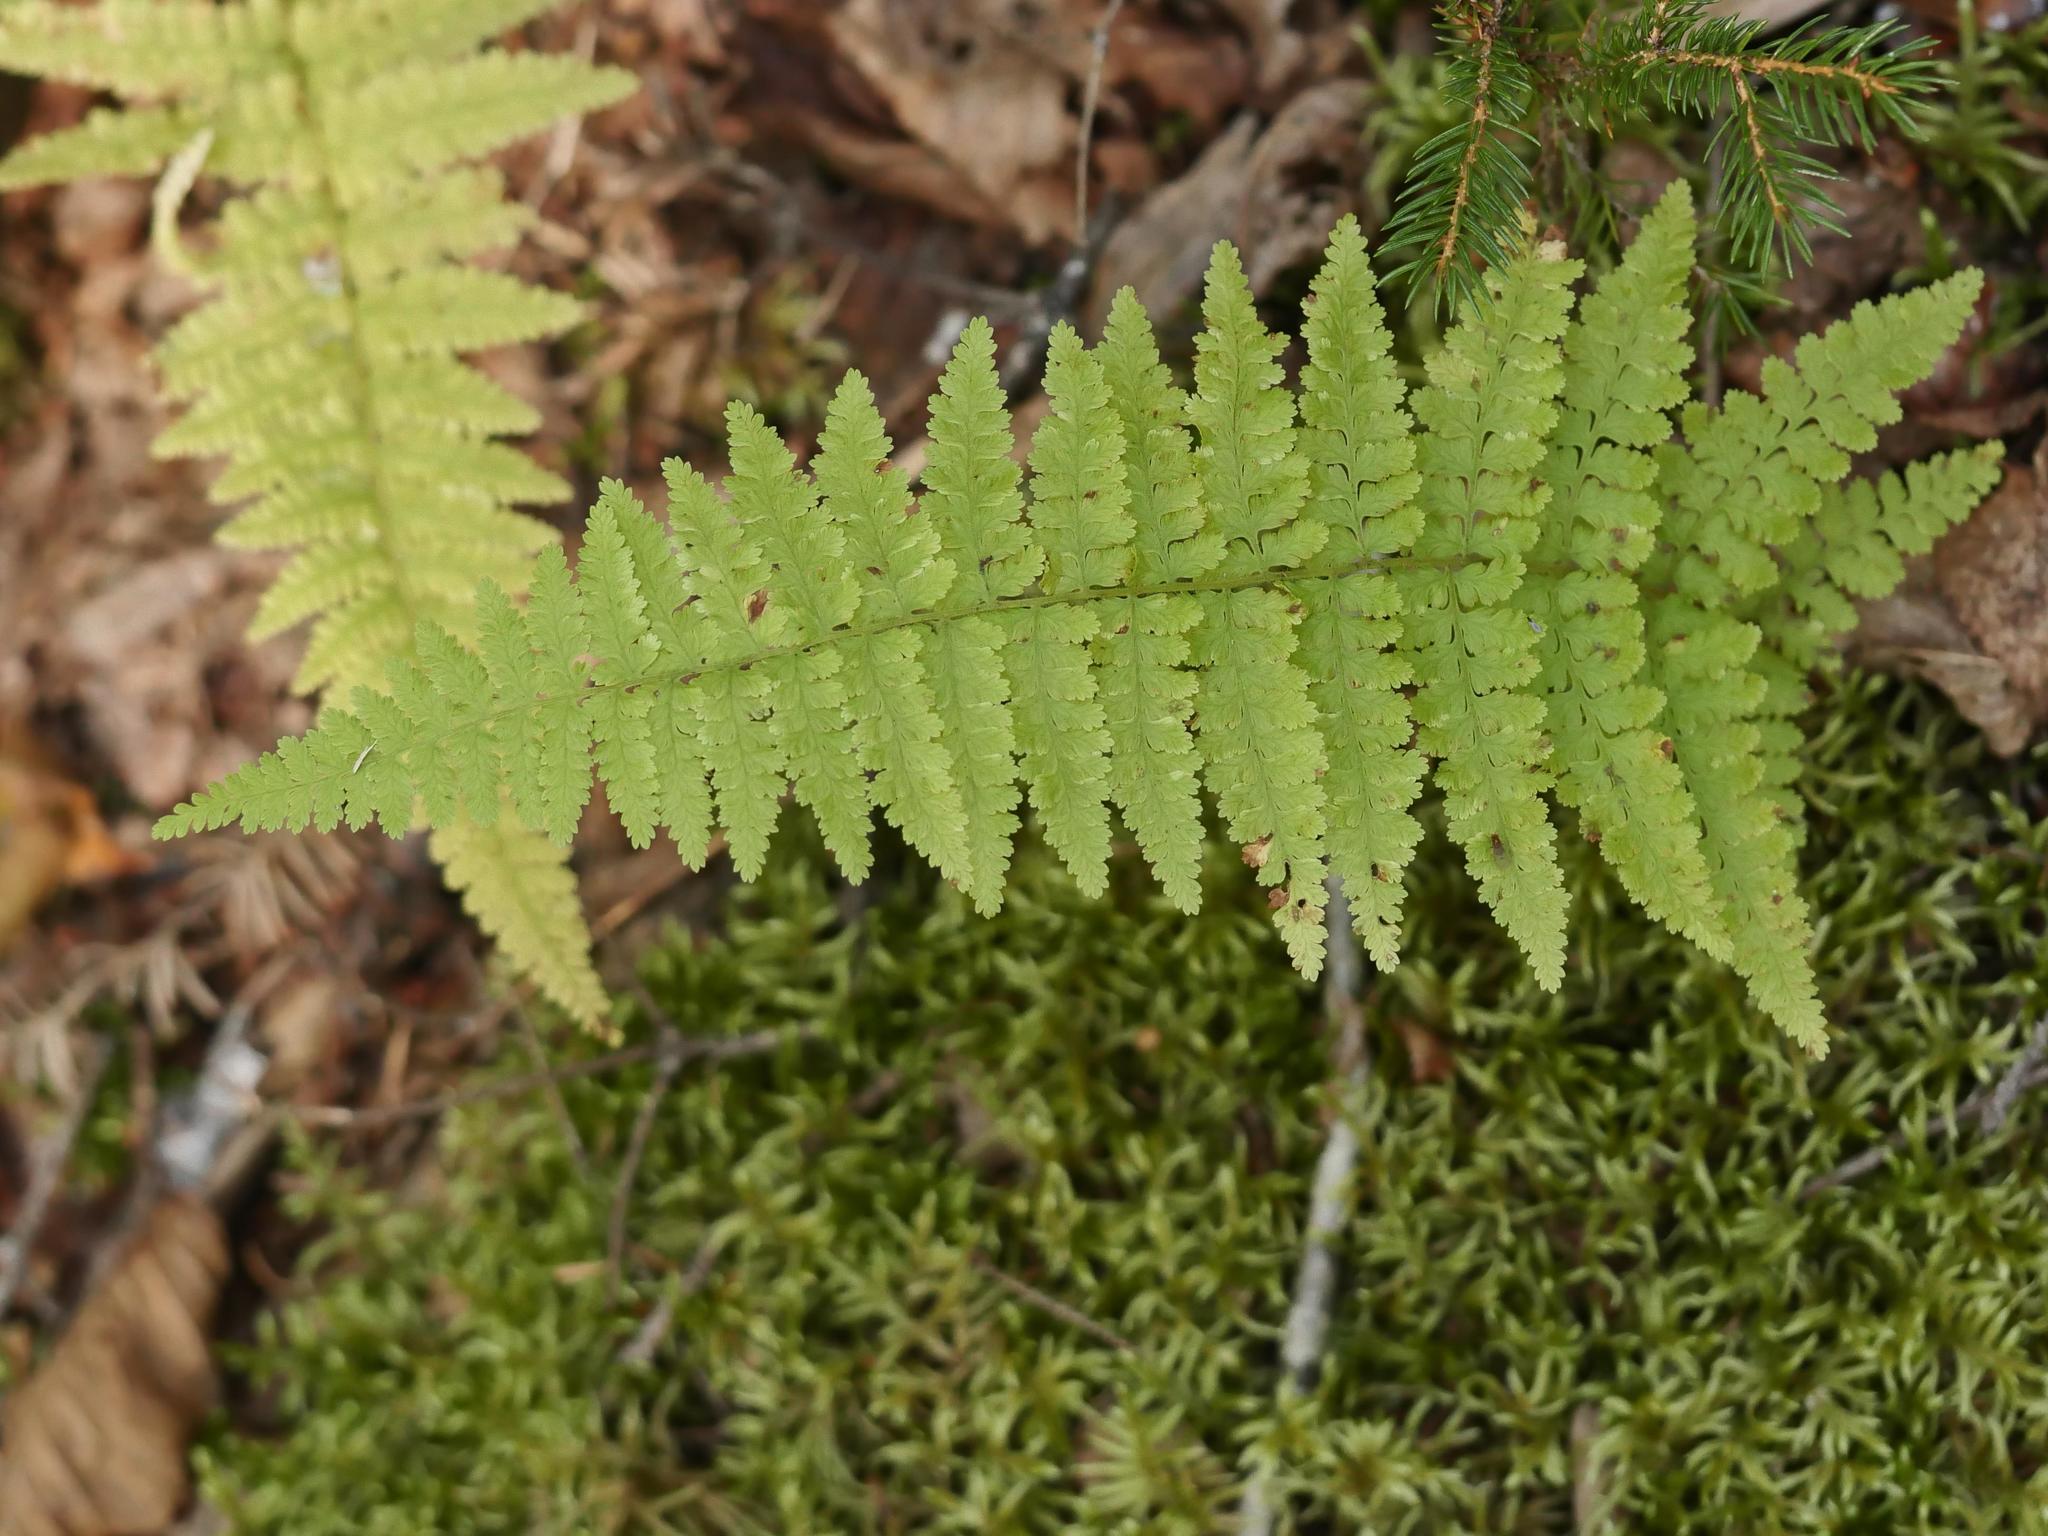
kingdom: Plantae
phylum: Tracheophyta
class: Polypodiopsida
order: Polypodiales
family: Dennstaedtiaceae
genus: Sitobolium
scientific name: Sitobolium punctilobum
